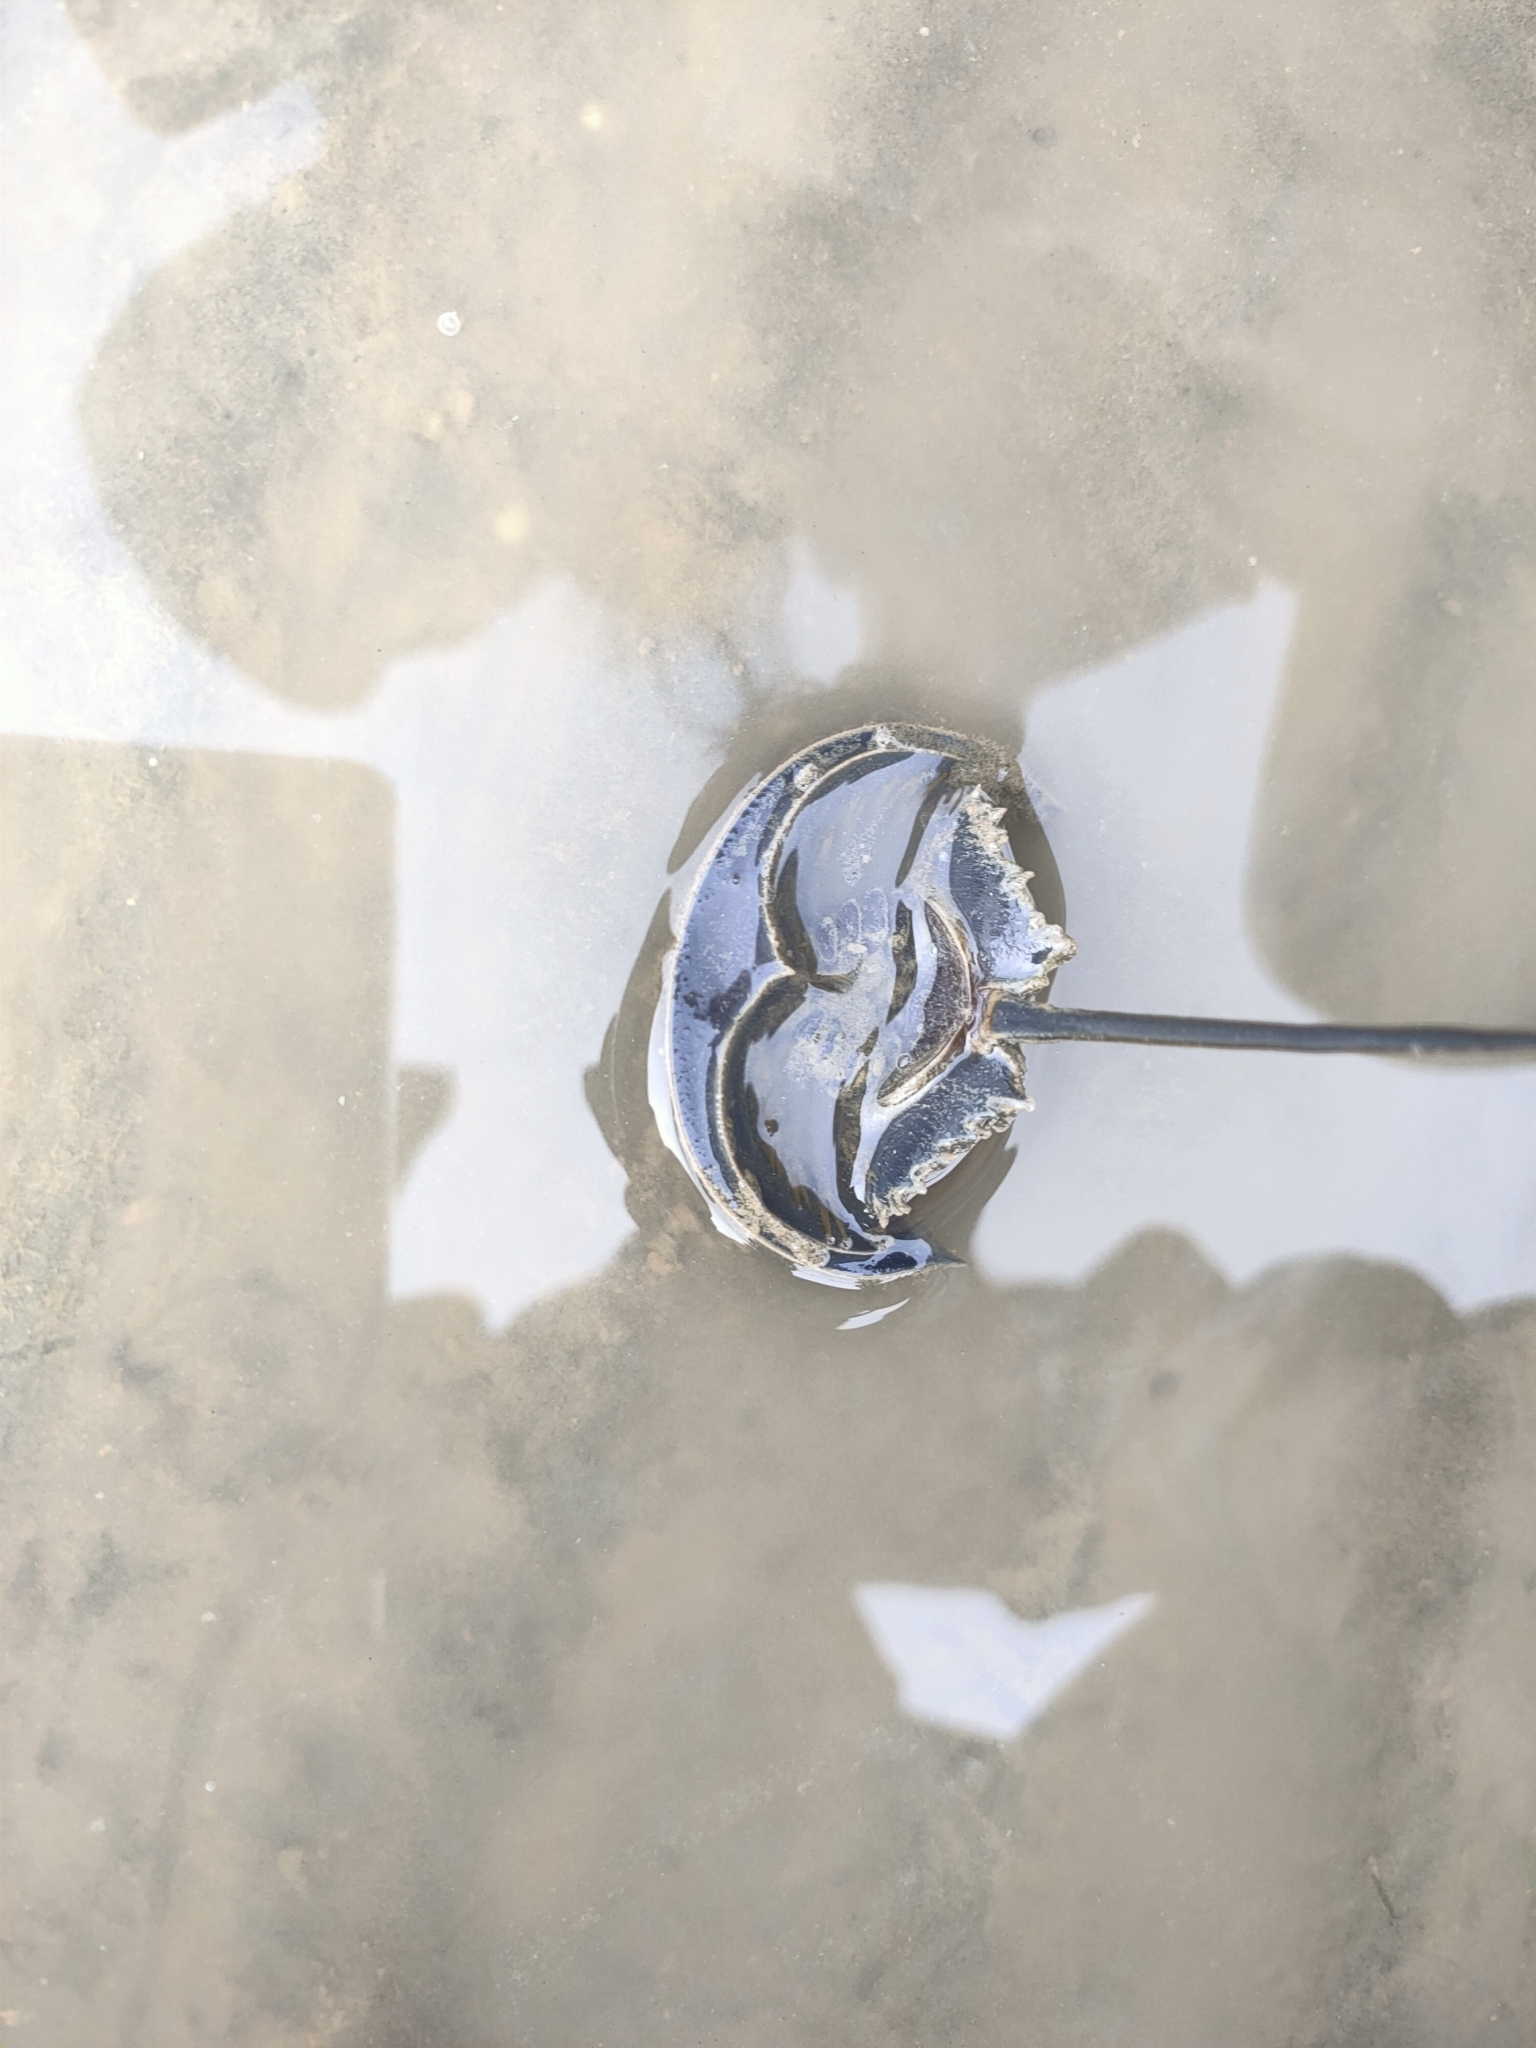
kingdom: Animalia
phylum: Arthropoda
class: Merostomata
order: Xiphosurida
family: Limulidae
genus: Carcinoscorpius
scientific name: Carcinoscorpius rotundicauda
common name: Horseshoe crab
